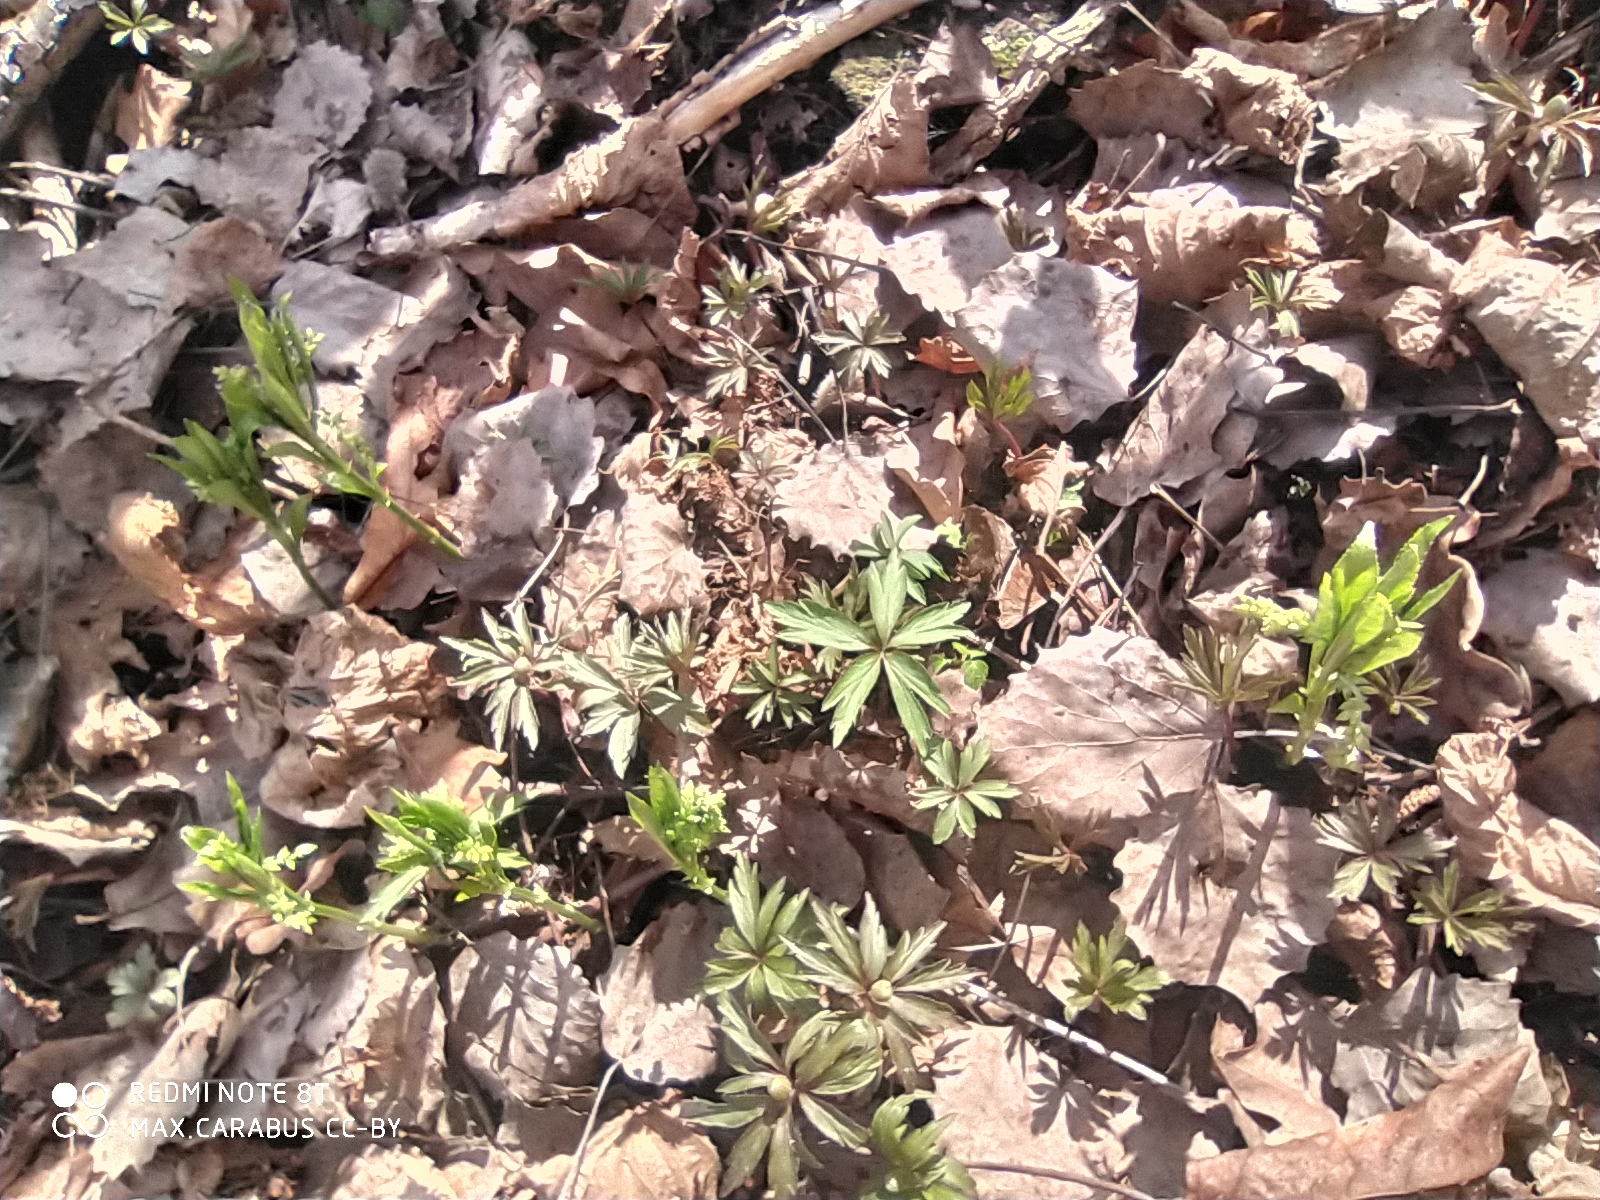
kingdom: Plantae
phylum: Tracheophyta
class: Magnoliopsida
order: Ranunculales
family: Ranunculaceae
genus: Anemone
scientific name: Anemone ranunculoides
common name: Yellow anemone
